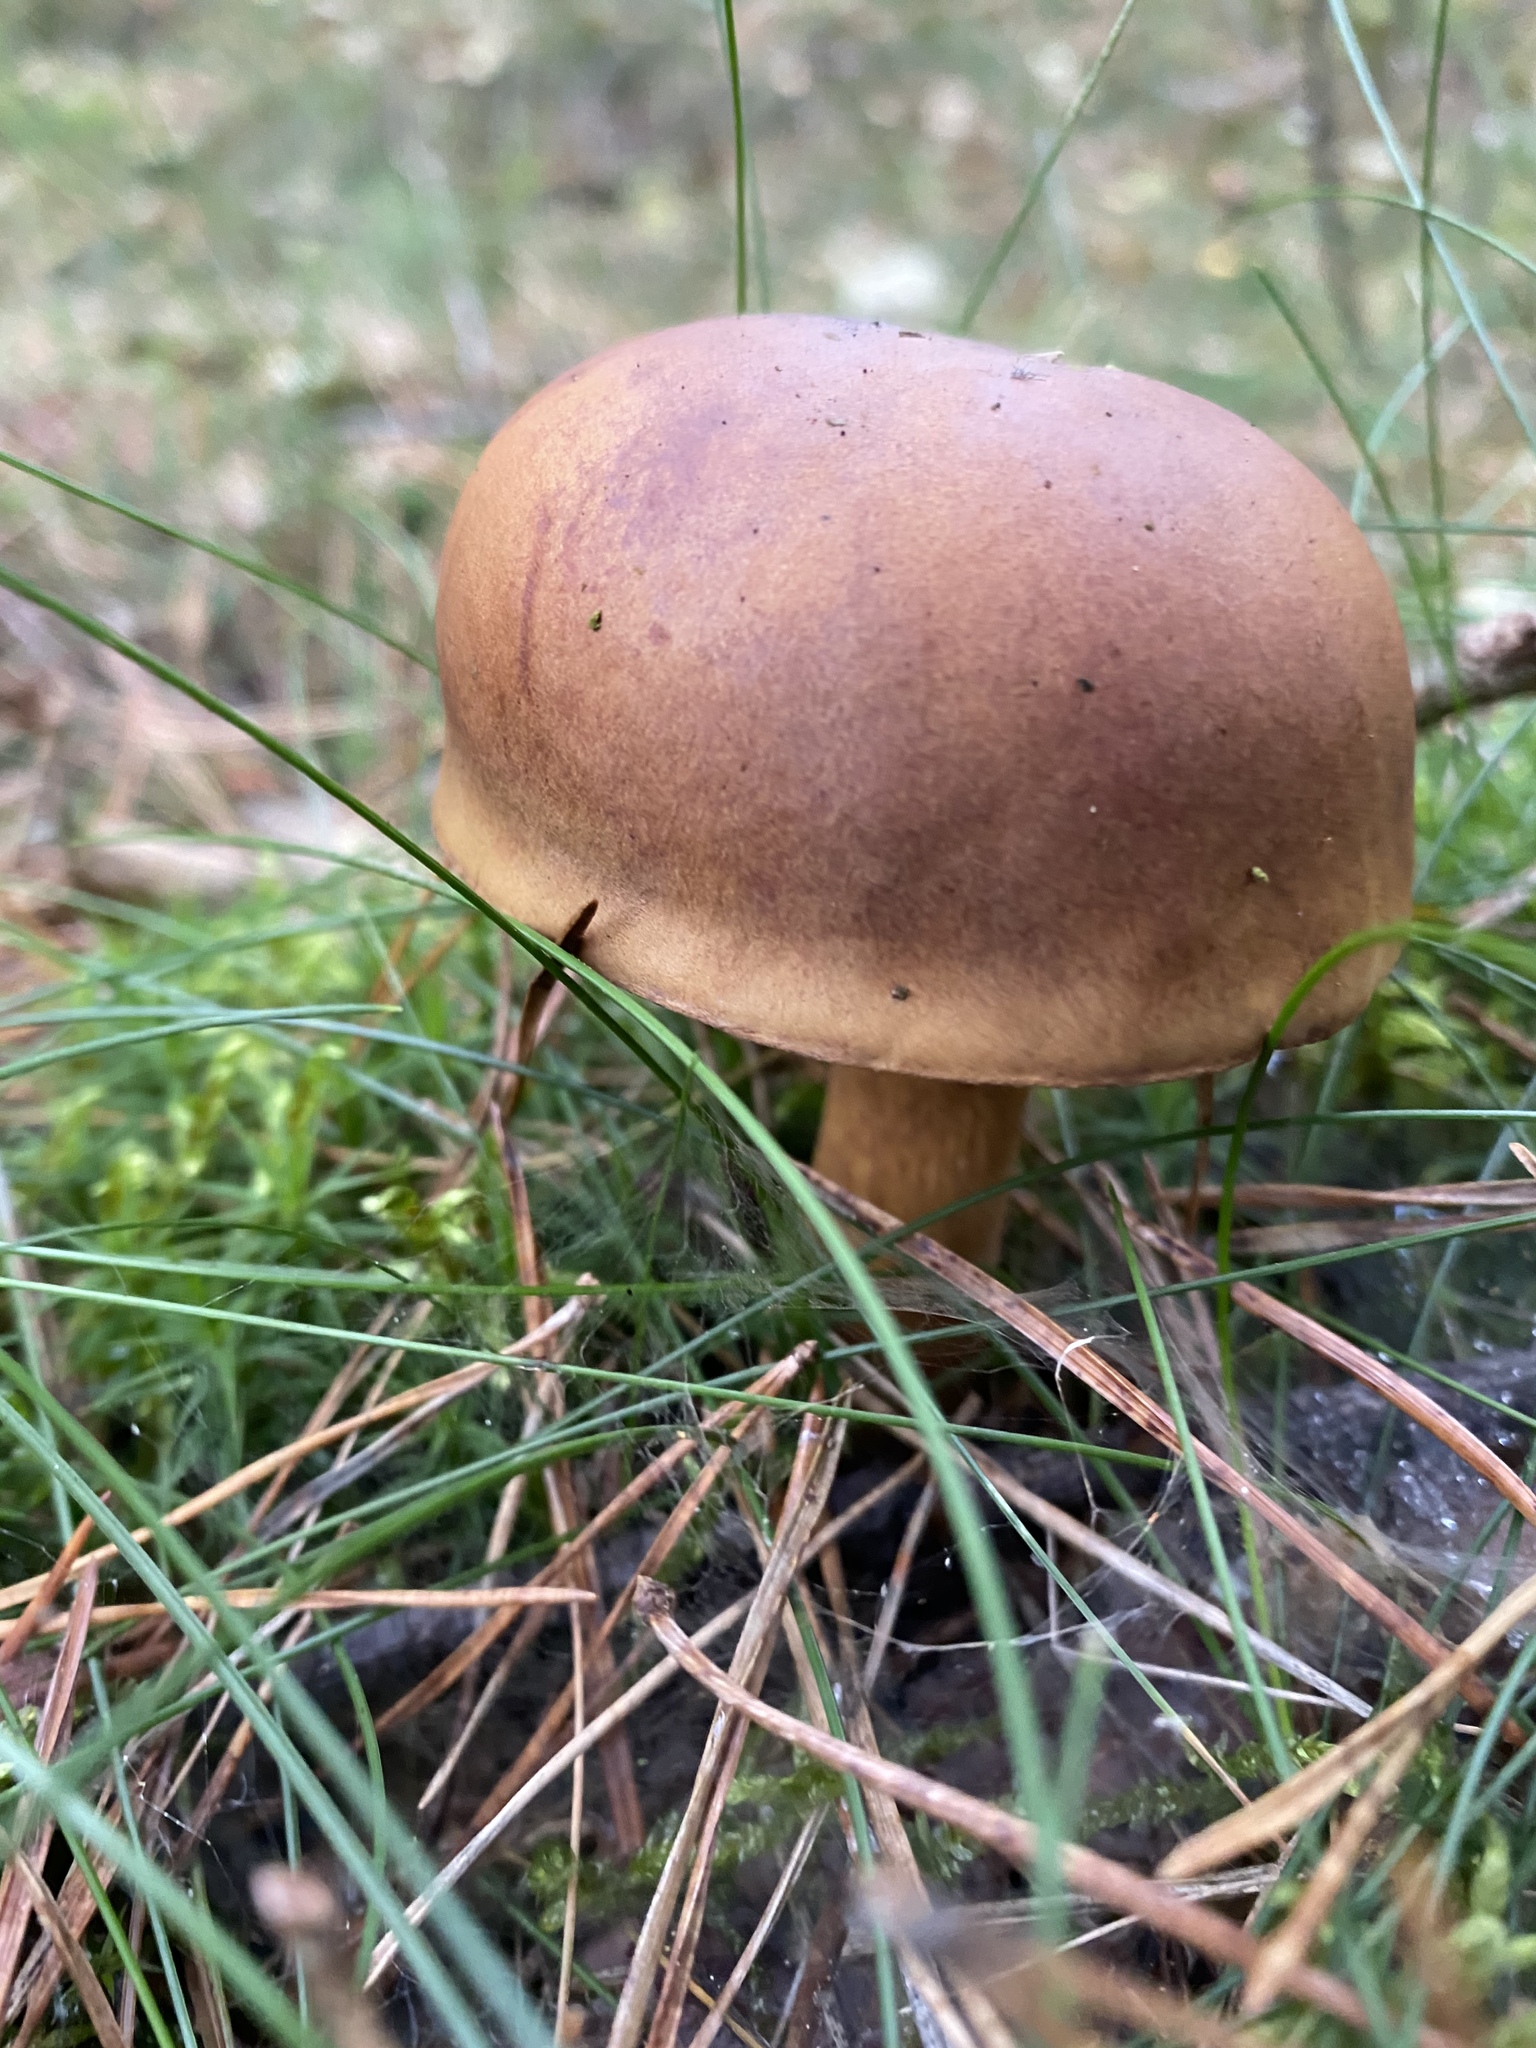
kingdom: Fungi
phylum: Basidiomycota
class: Agaricomycetes
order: Boletales
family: Boletaceae
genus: Imleria
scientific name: Imleria badia
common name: Bay bolete
